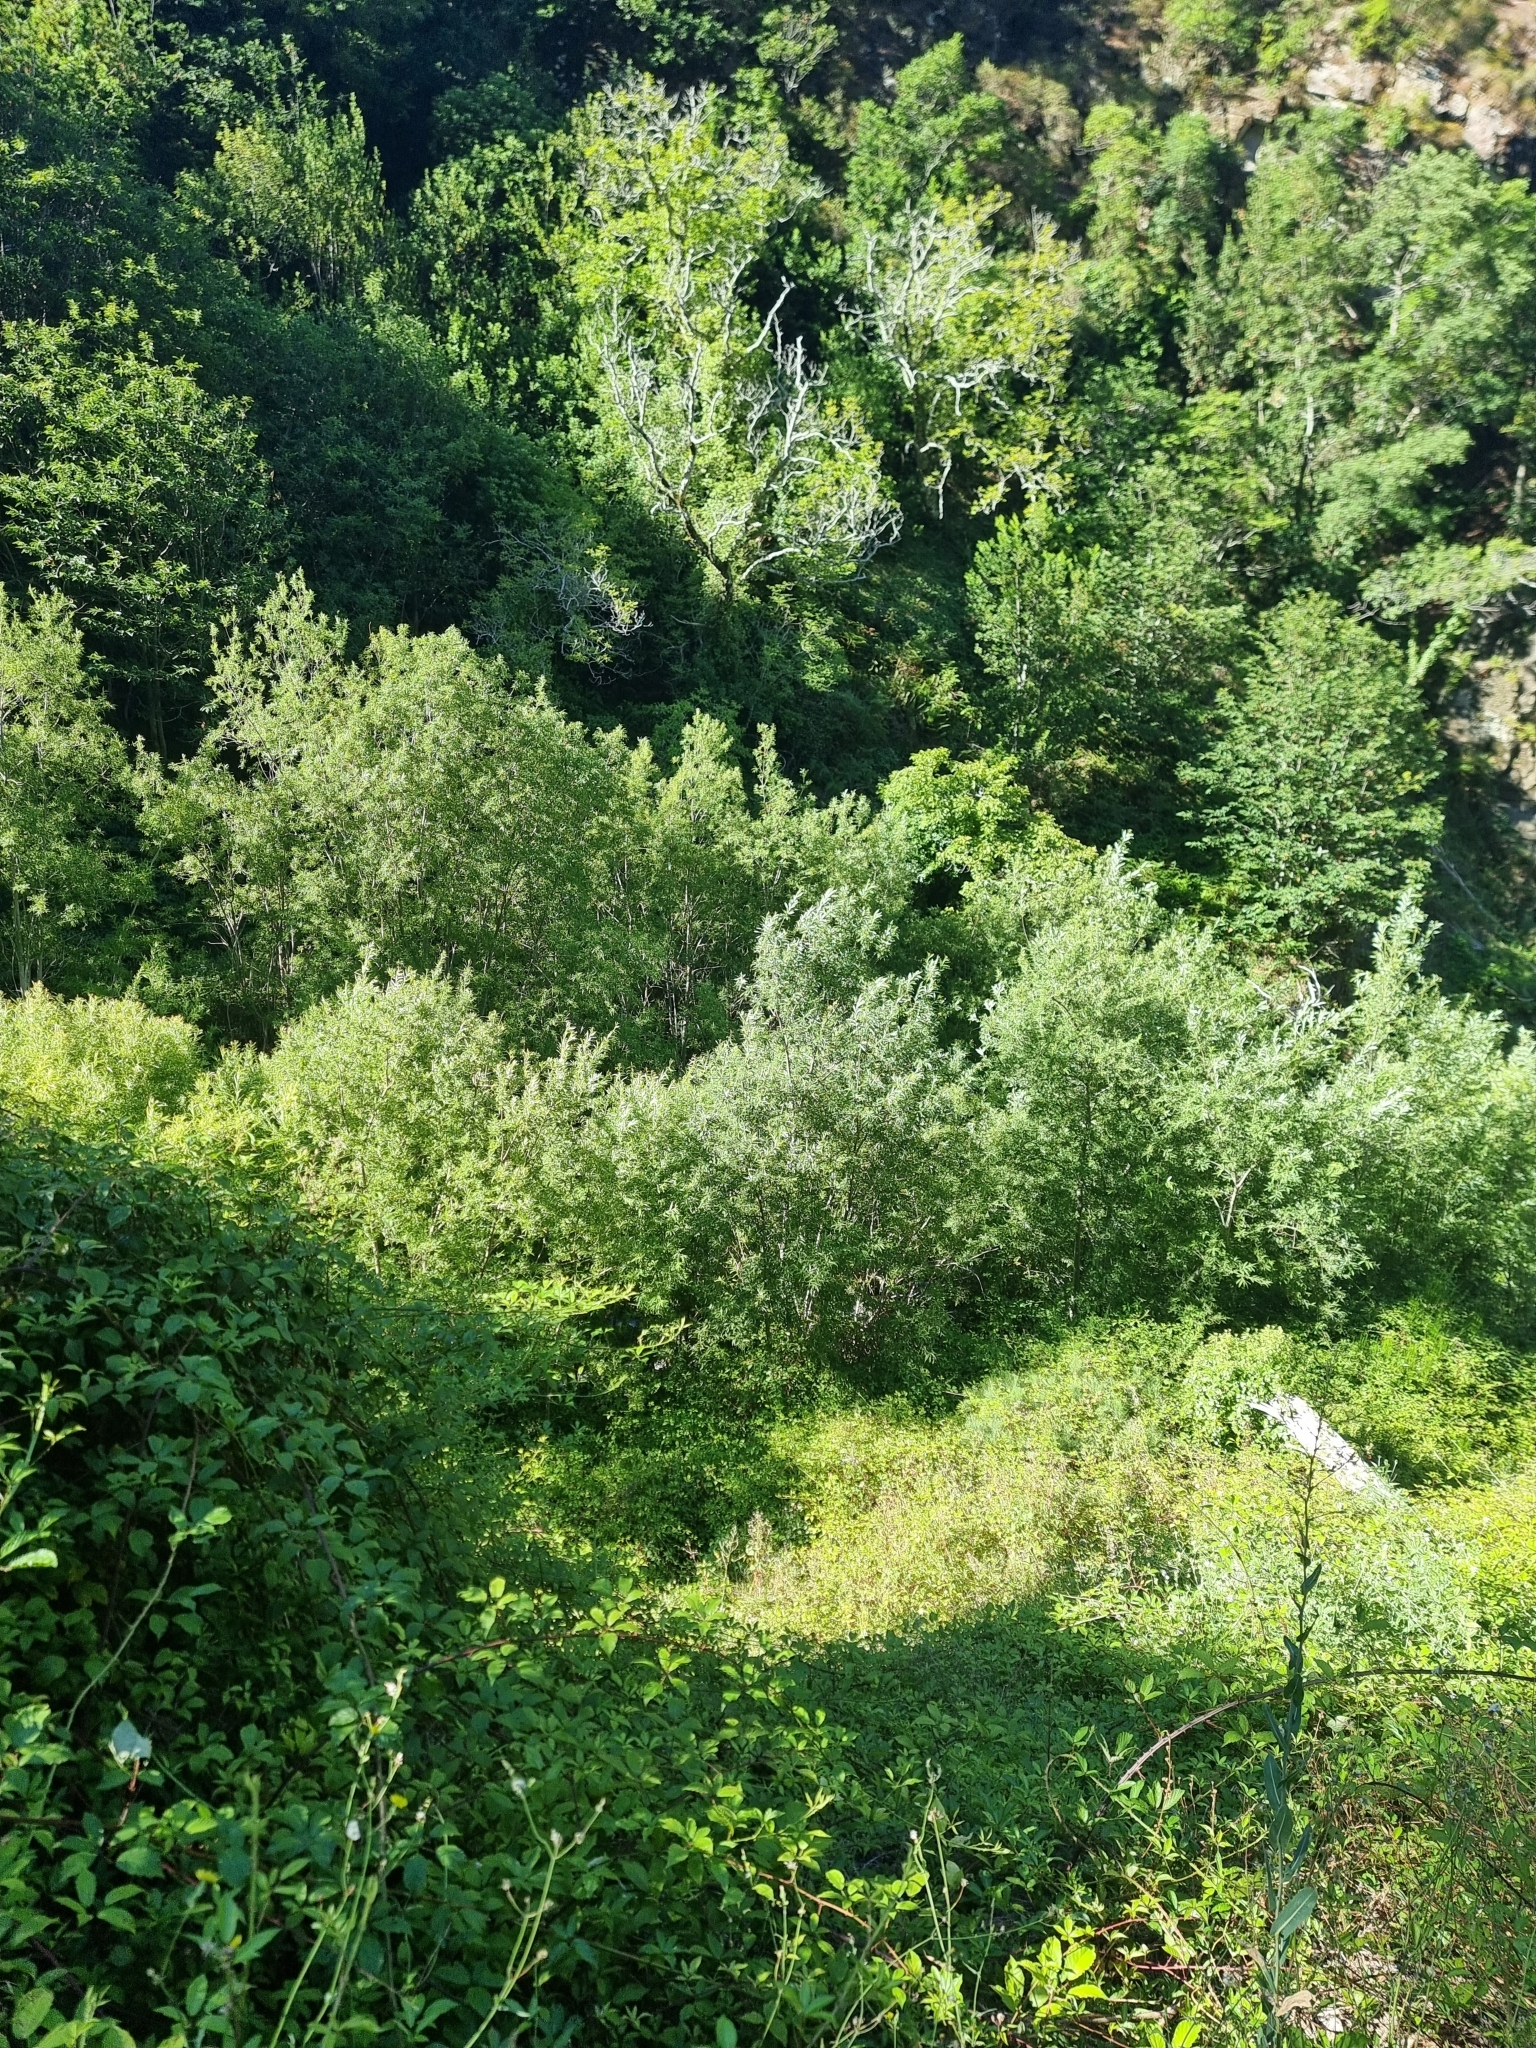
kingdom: Plantae
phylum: Tracheophyta
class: Magnoliopsida
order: Malpighiales
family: Salicaceae
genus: Salix
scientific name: Salix canariensis
